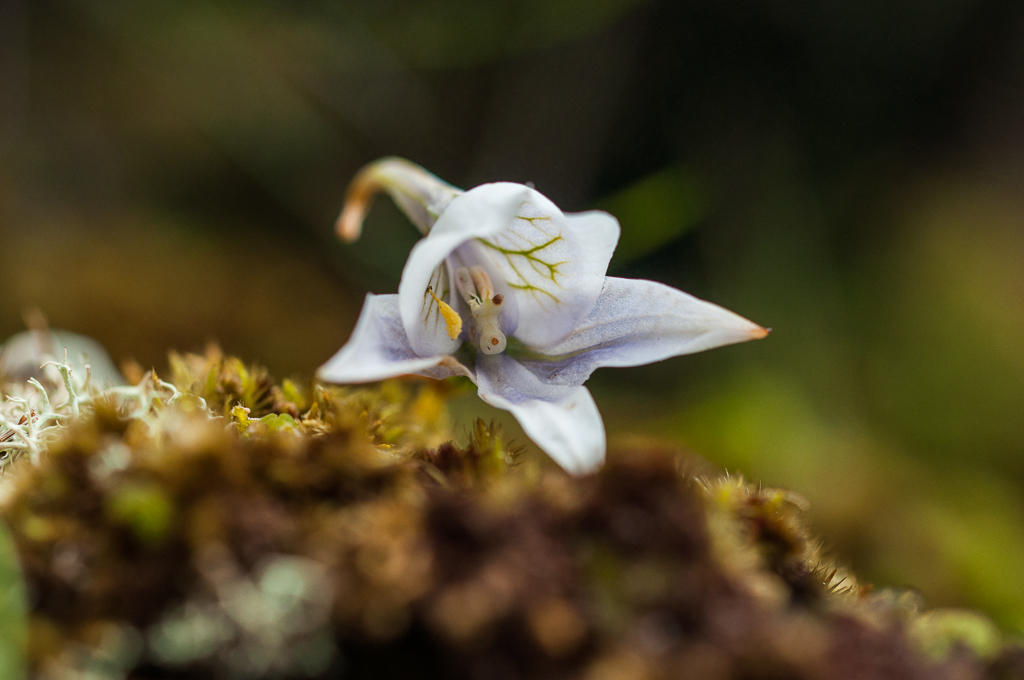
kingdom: Plantae
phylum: Tracheophyta
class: Liliopsida
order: Asparagales
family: Orchidaceae
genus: Disa
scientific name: Disa longicornu
